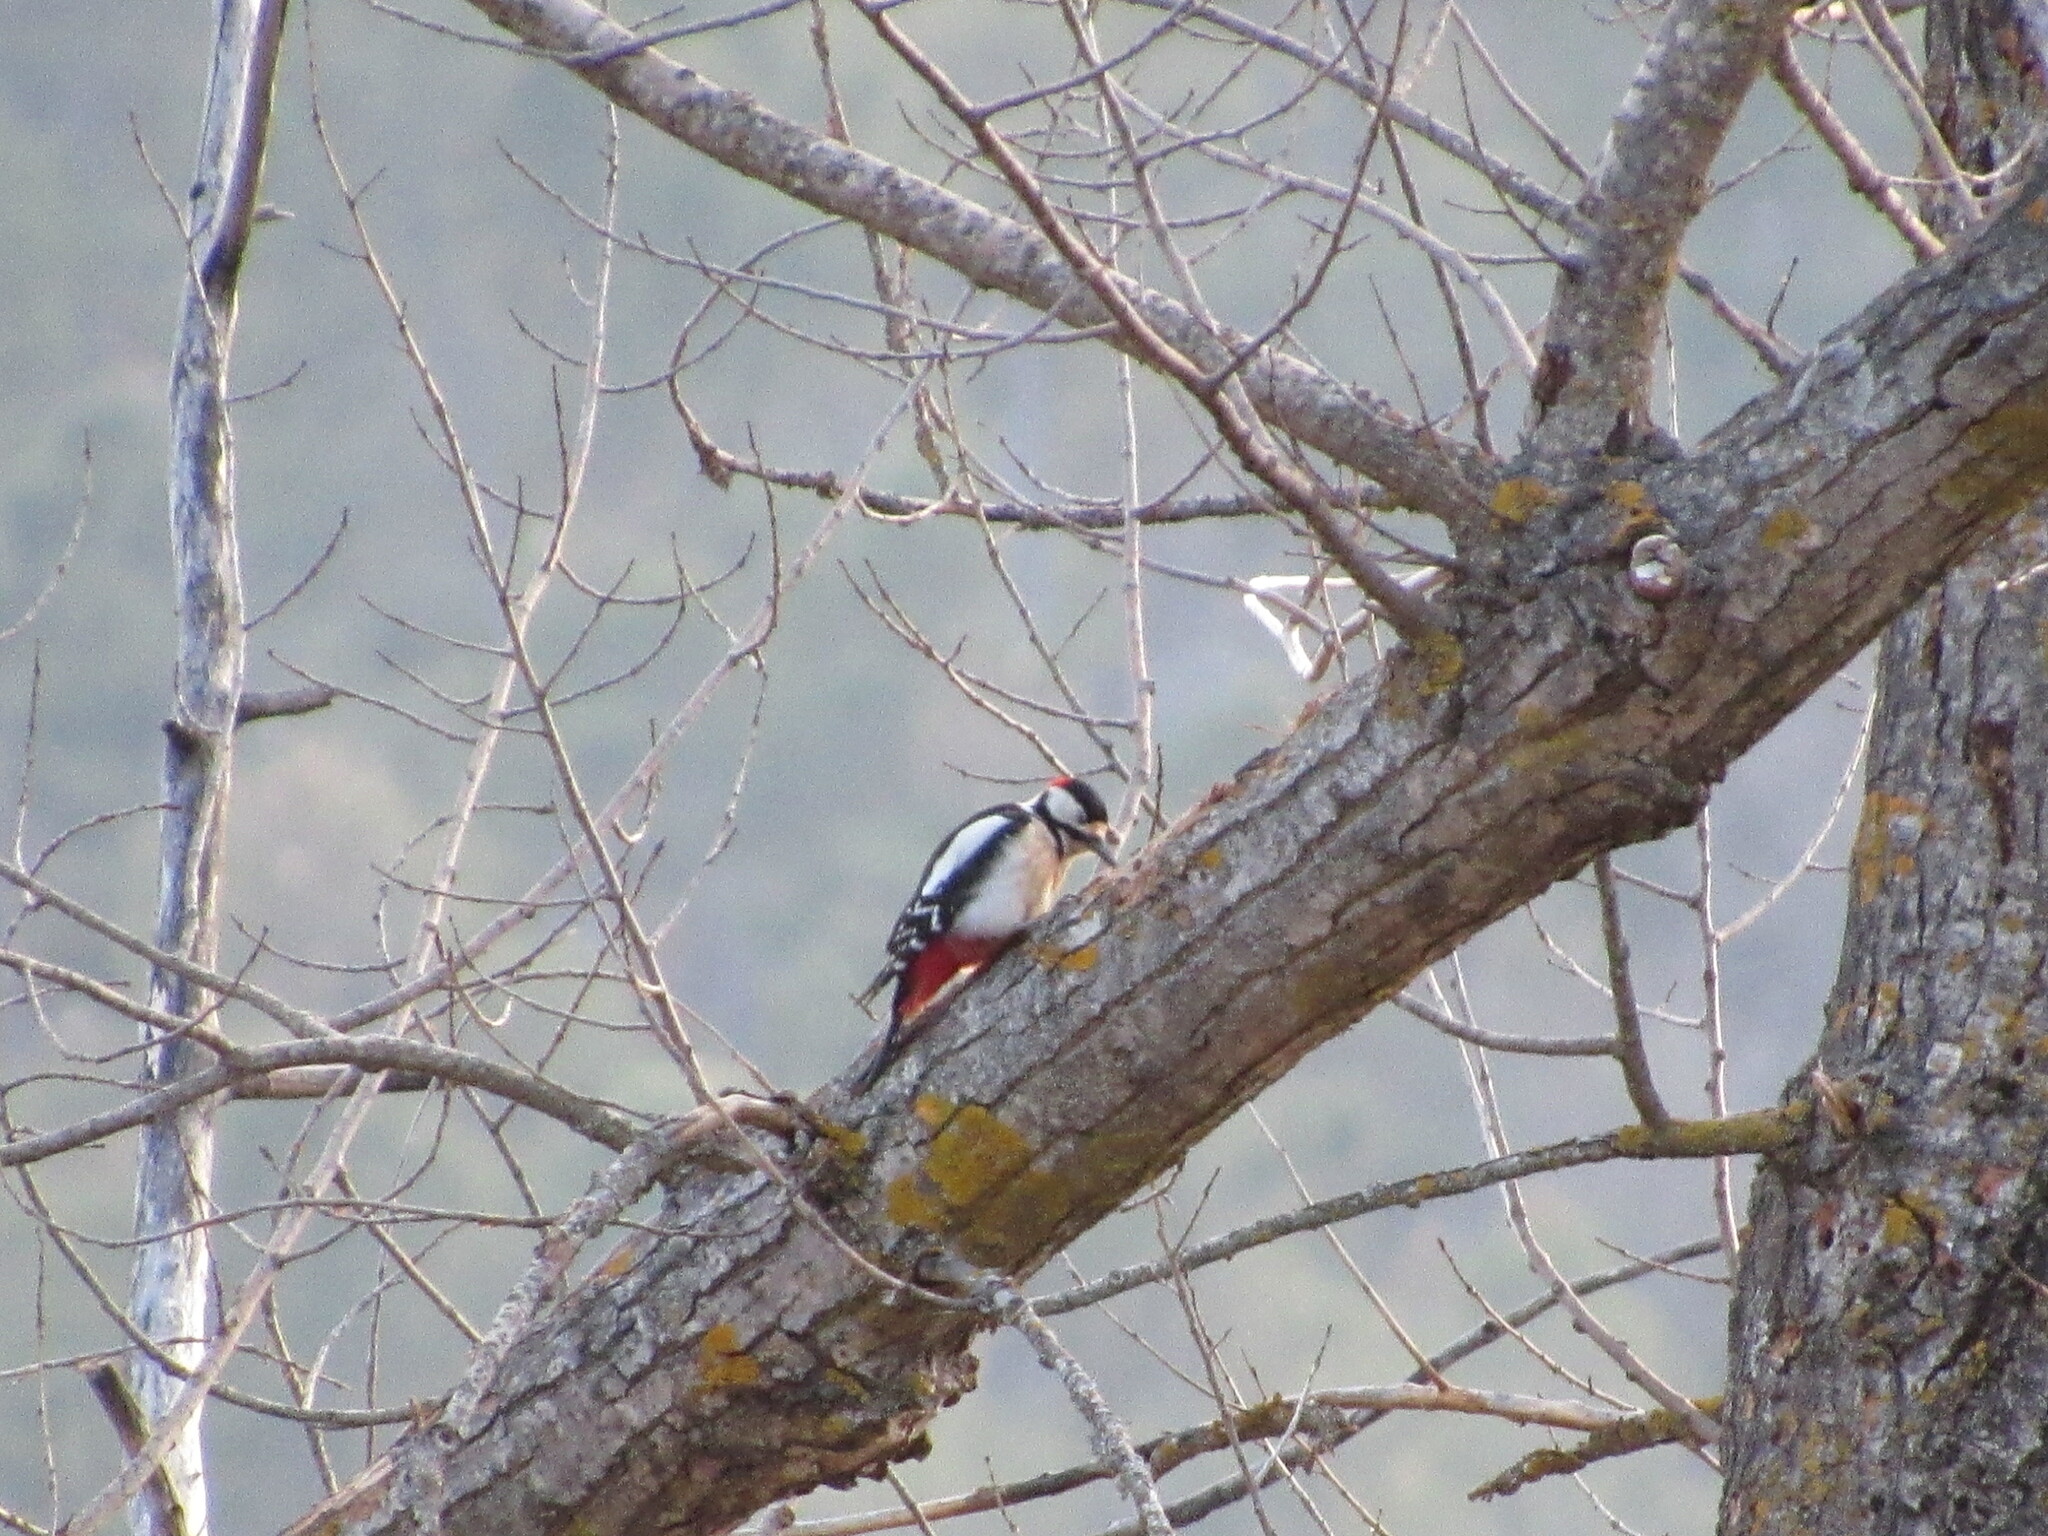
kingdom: Animalia
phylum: Chordata
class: Aves
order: Piciformes
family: Picidae
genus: Dendrocopos
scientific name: Dendrocopos major
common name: Great spotted woodpecker
